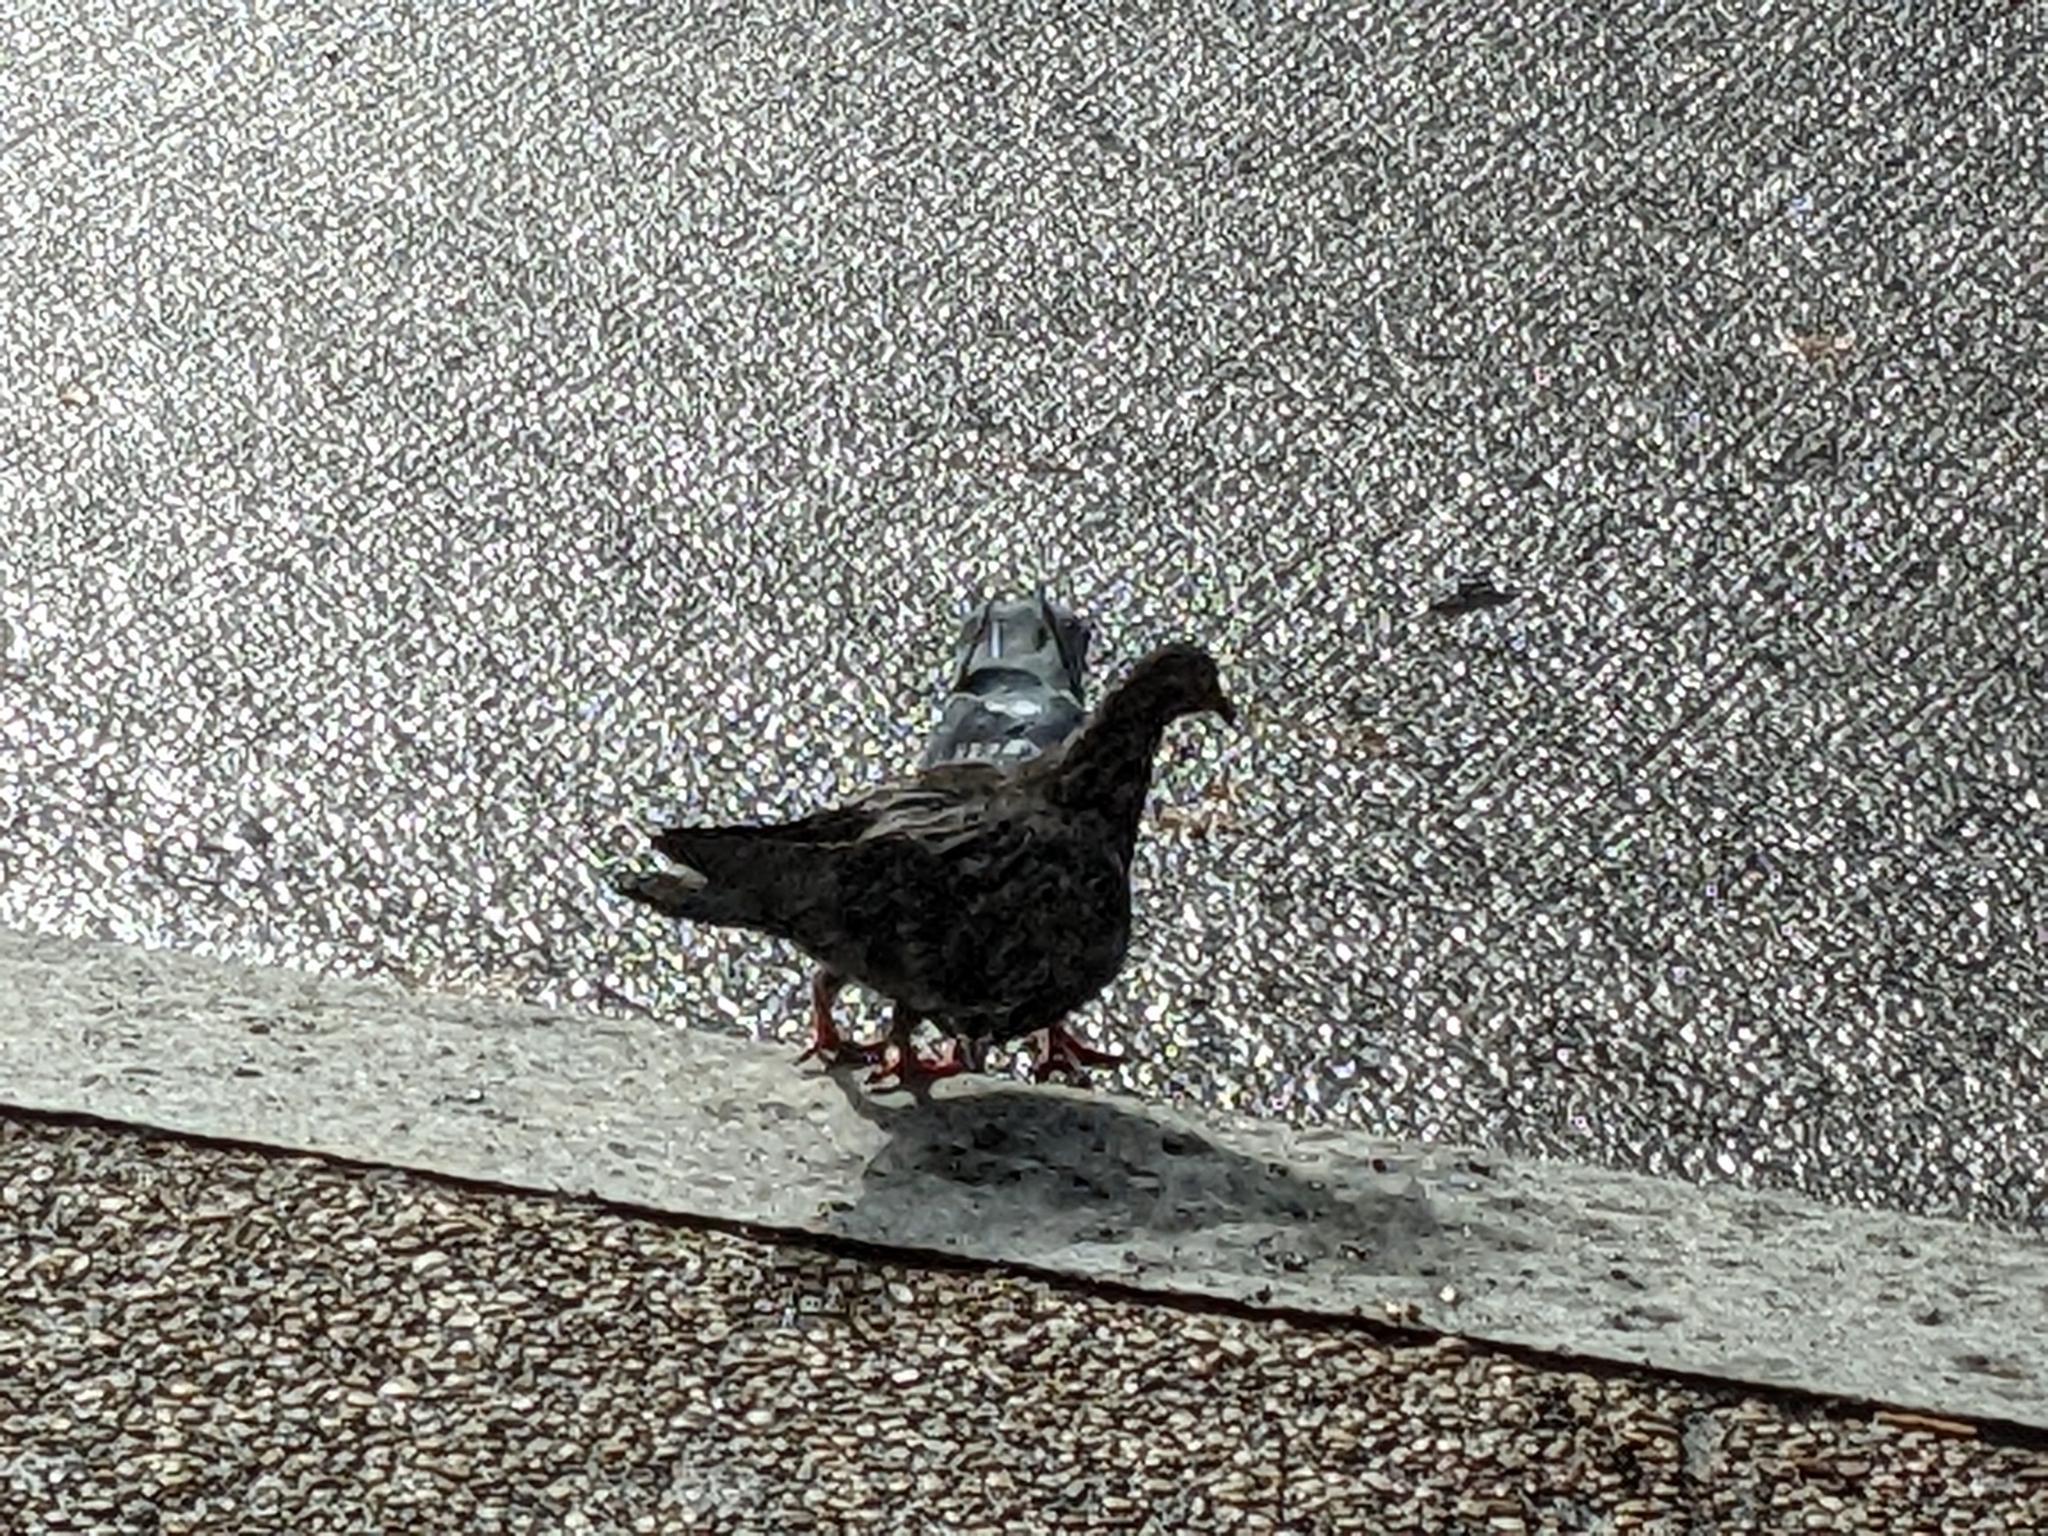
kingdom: Animalia
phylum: Chordata
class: Aves
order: Columbiformes
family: Columbidae
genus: Columba
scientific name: Columba livia
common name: Rock pigeon
